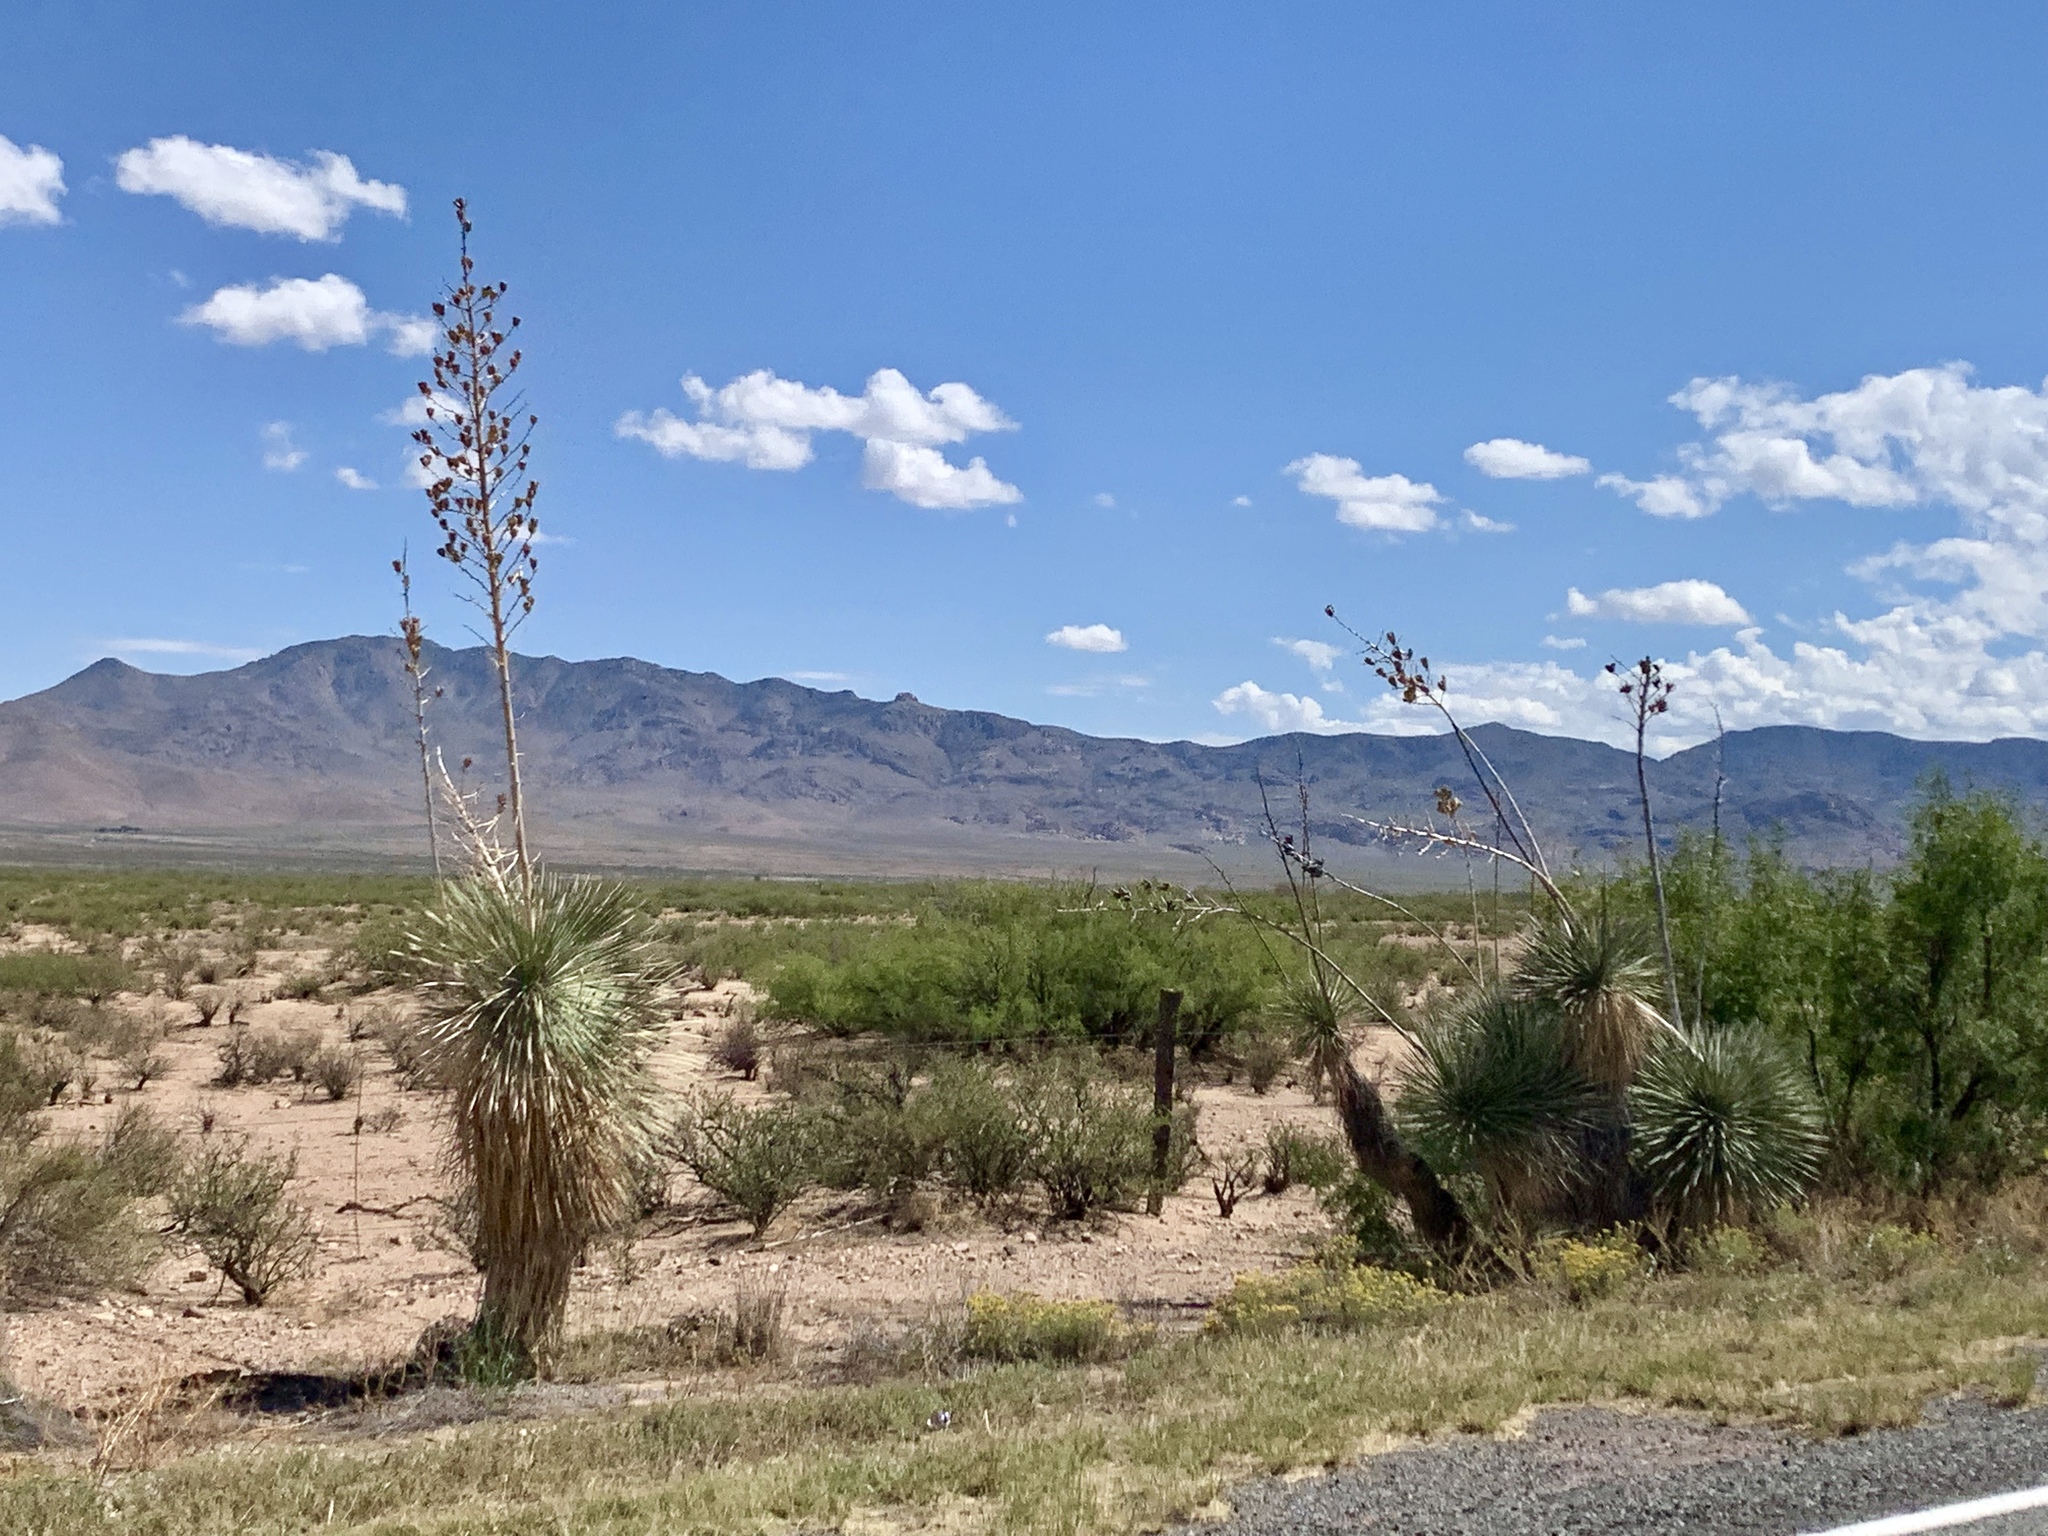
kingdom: Plantae
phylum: Tracheophyta
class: Liliopsida
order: Asparagales
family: Asparagaceae
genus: Yucca
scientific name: Yucca elata
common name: Palmella
